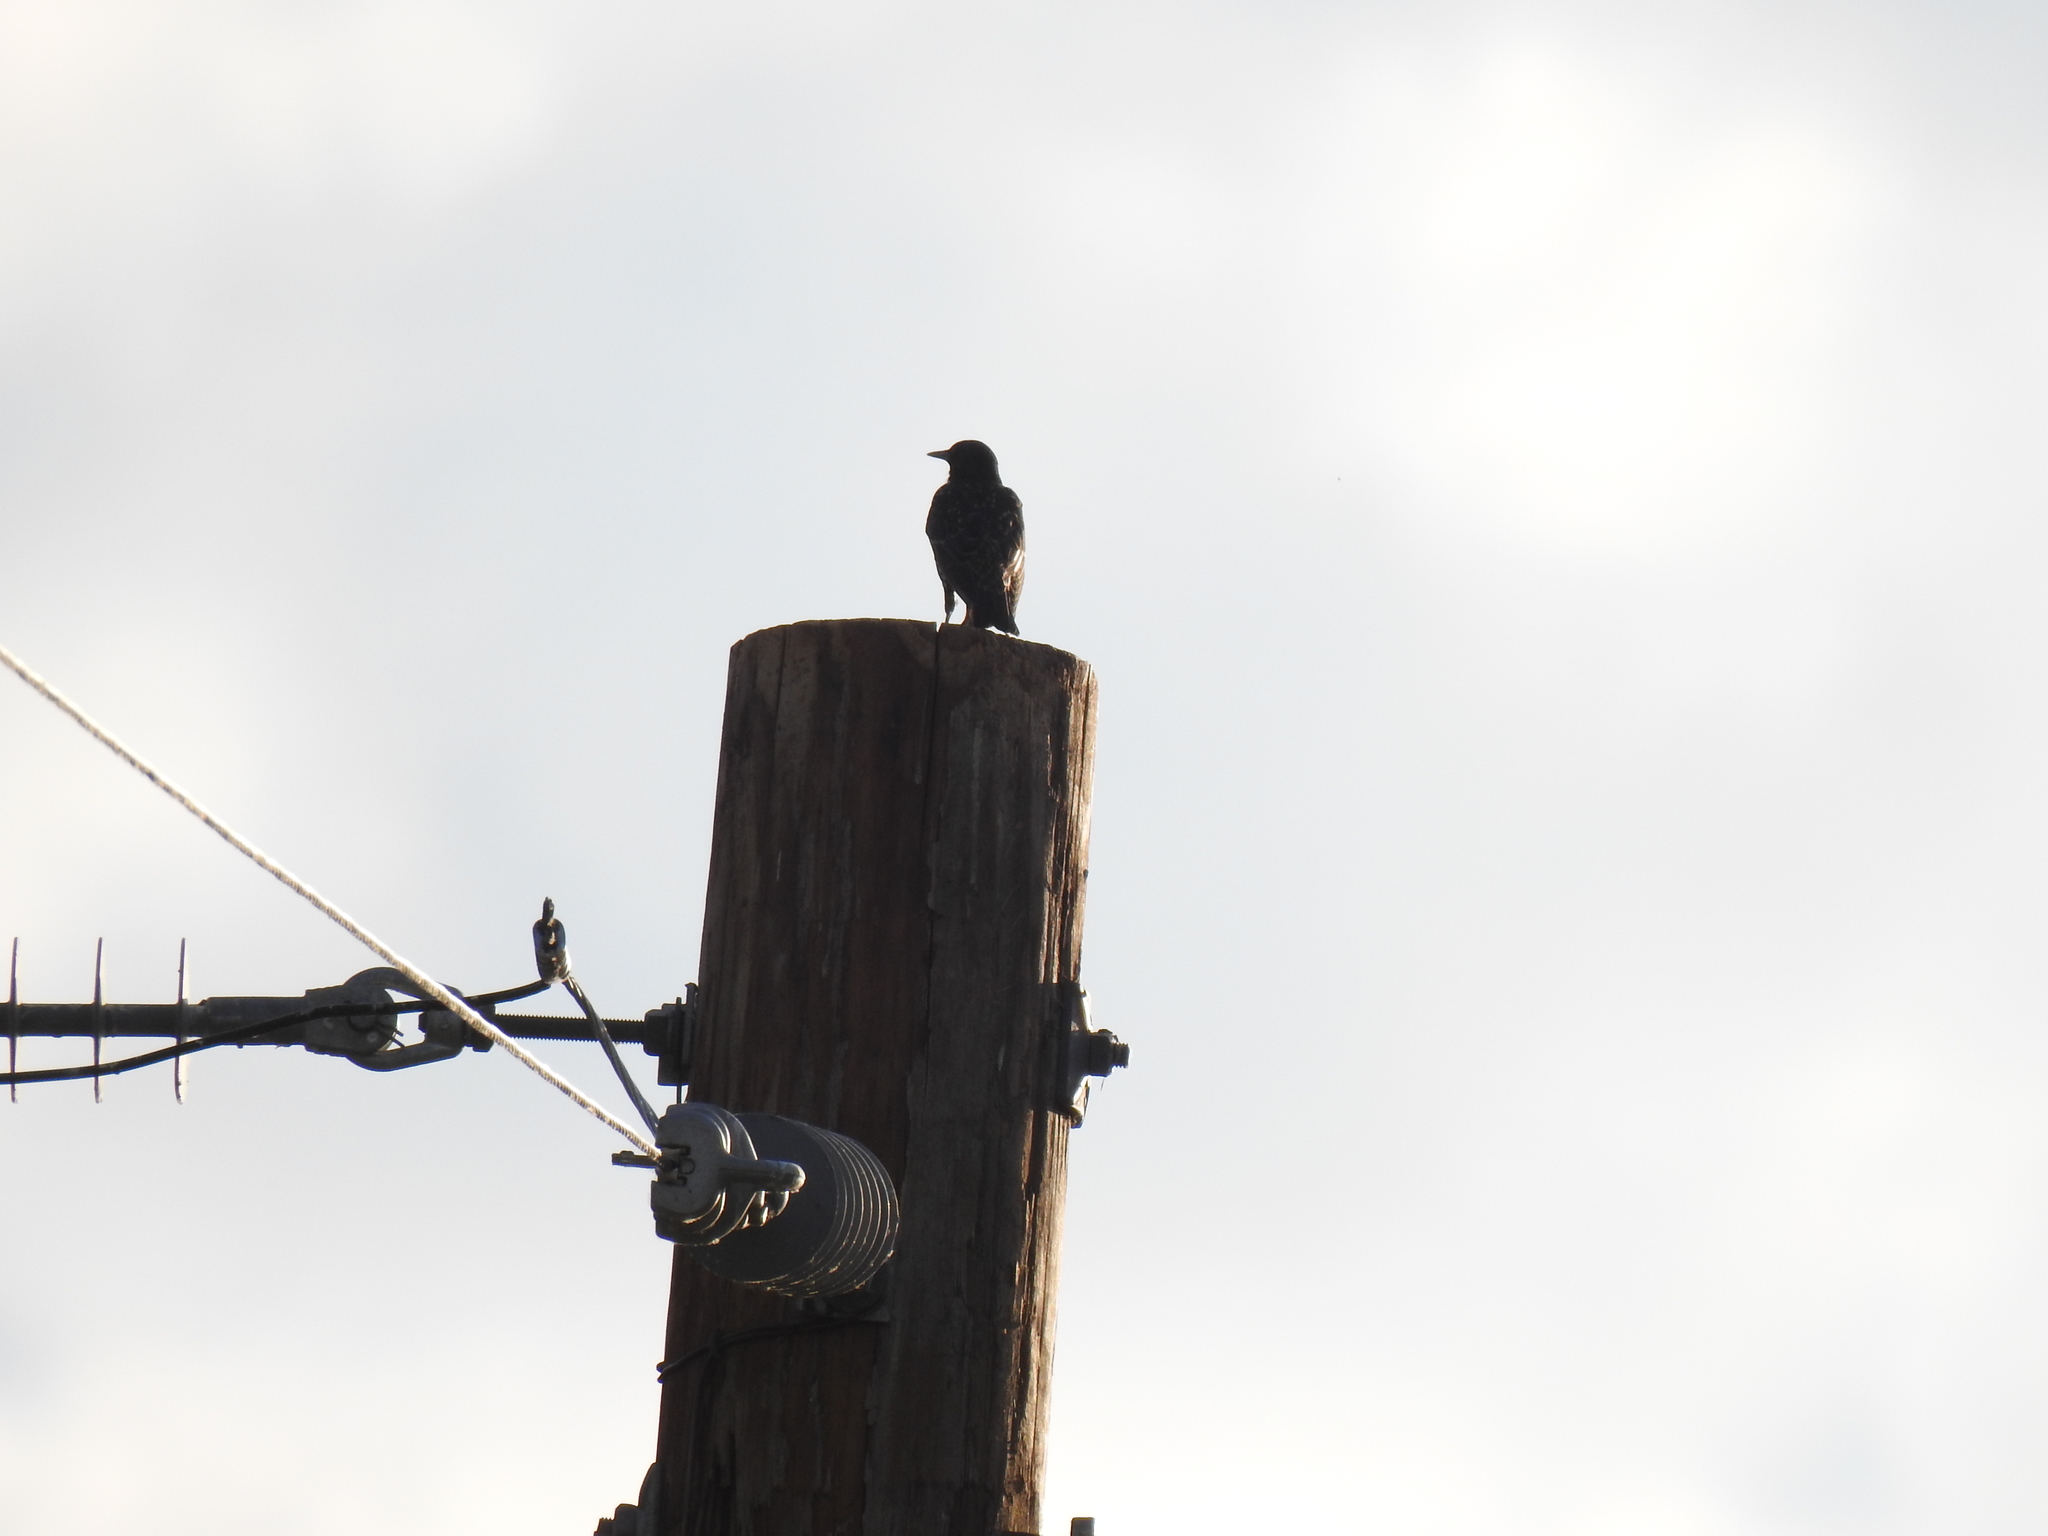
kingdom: Animalia
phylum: Chordata
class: Aves
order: Passeriformes
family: Sturnidae
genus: Sturnus
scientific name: Sturnus vulgaris
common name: Common starling
